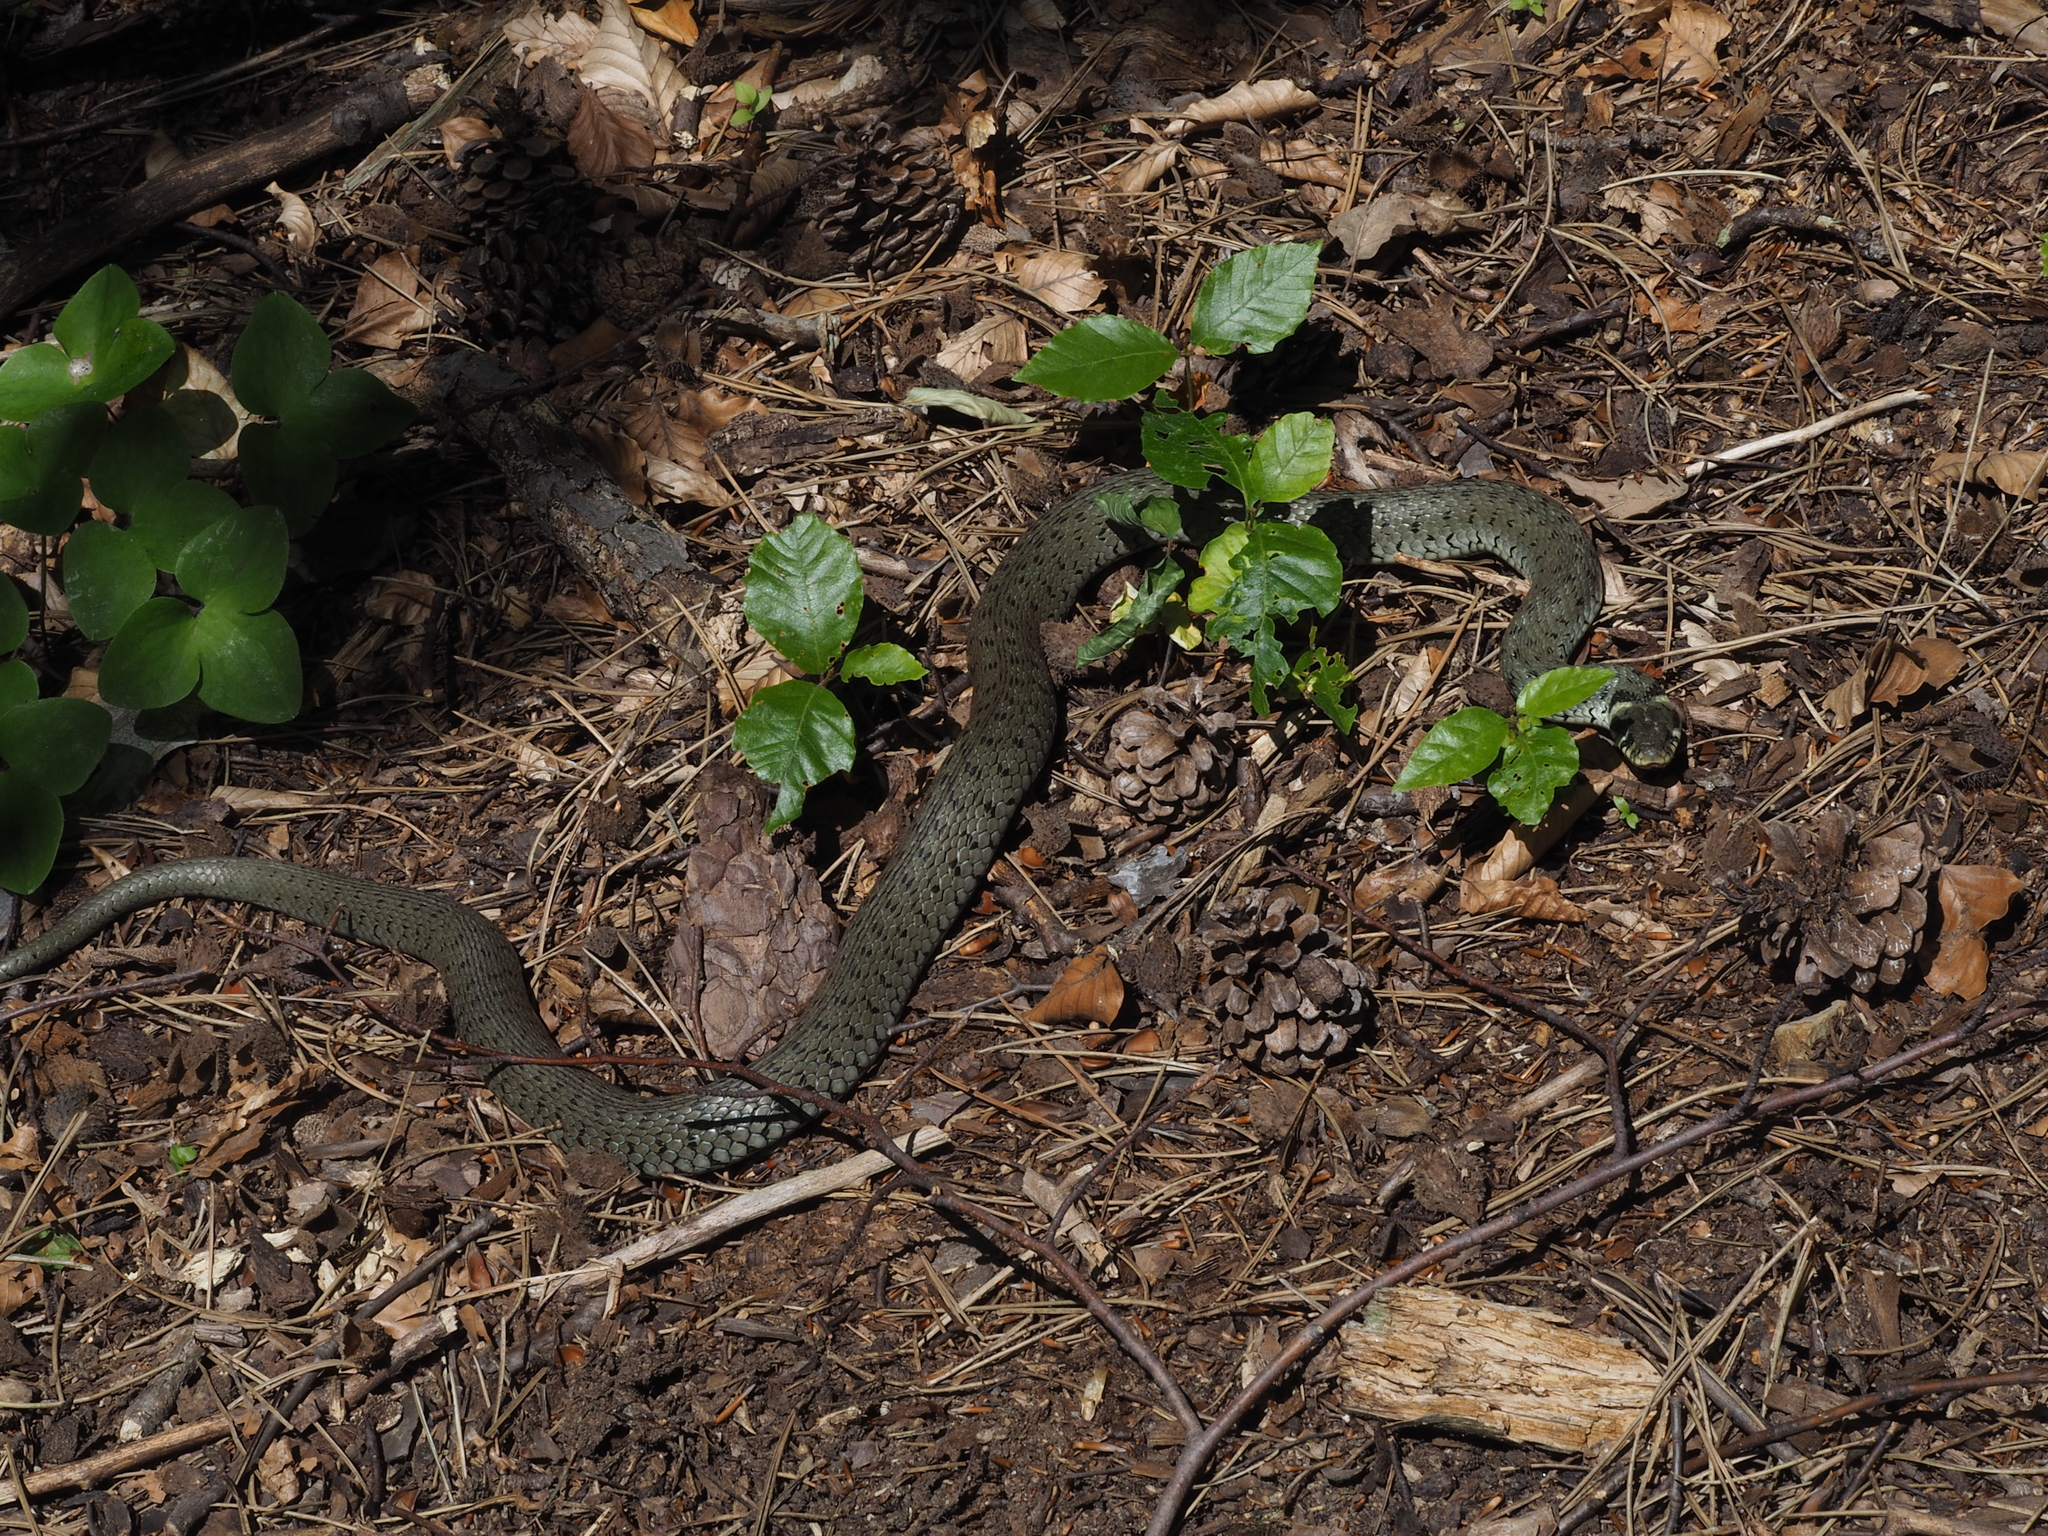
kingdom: Animalia
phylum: Chordata
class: Squamata
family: Colubridae
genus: Natrix
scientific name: Natrix natrix
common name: Grass snake
